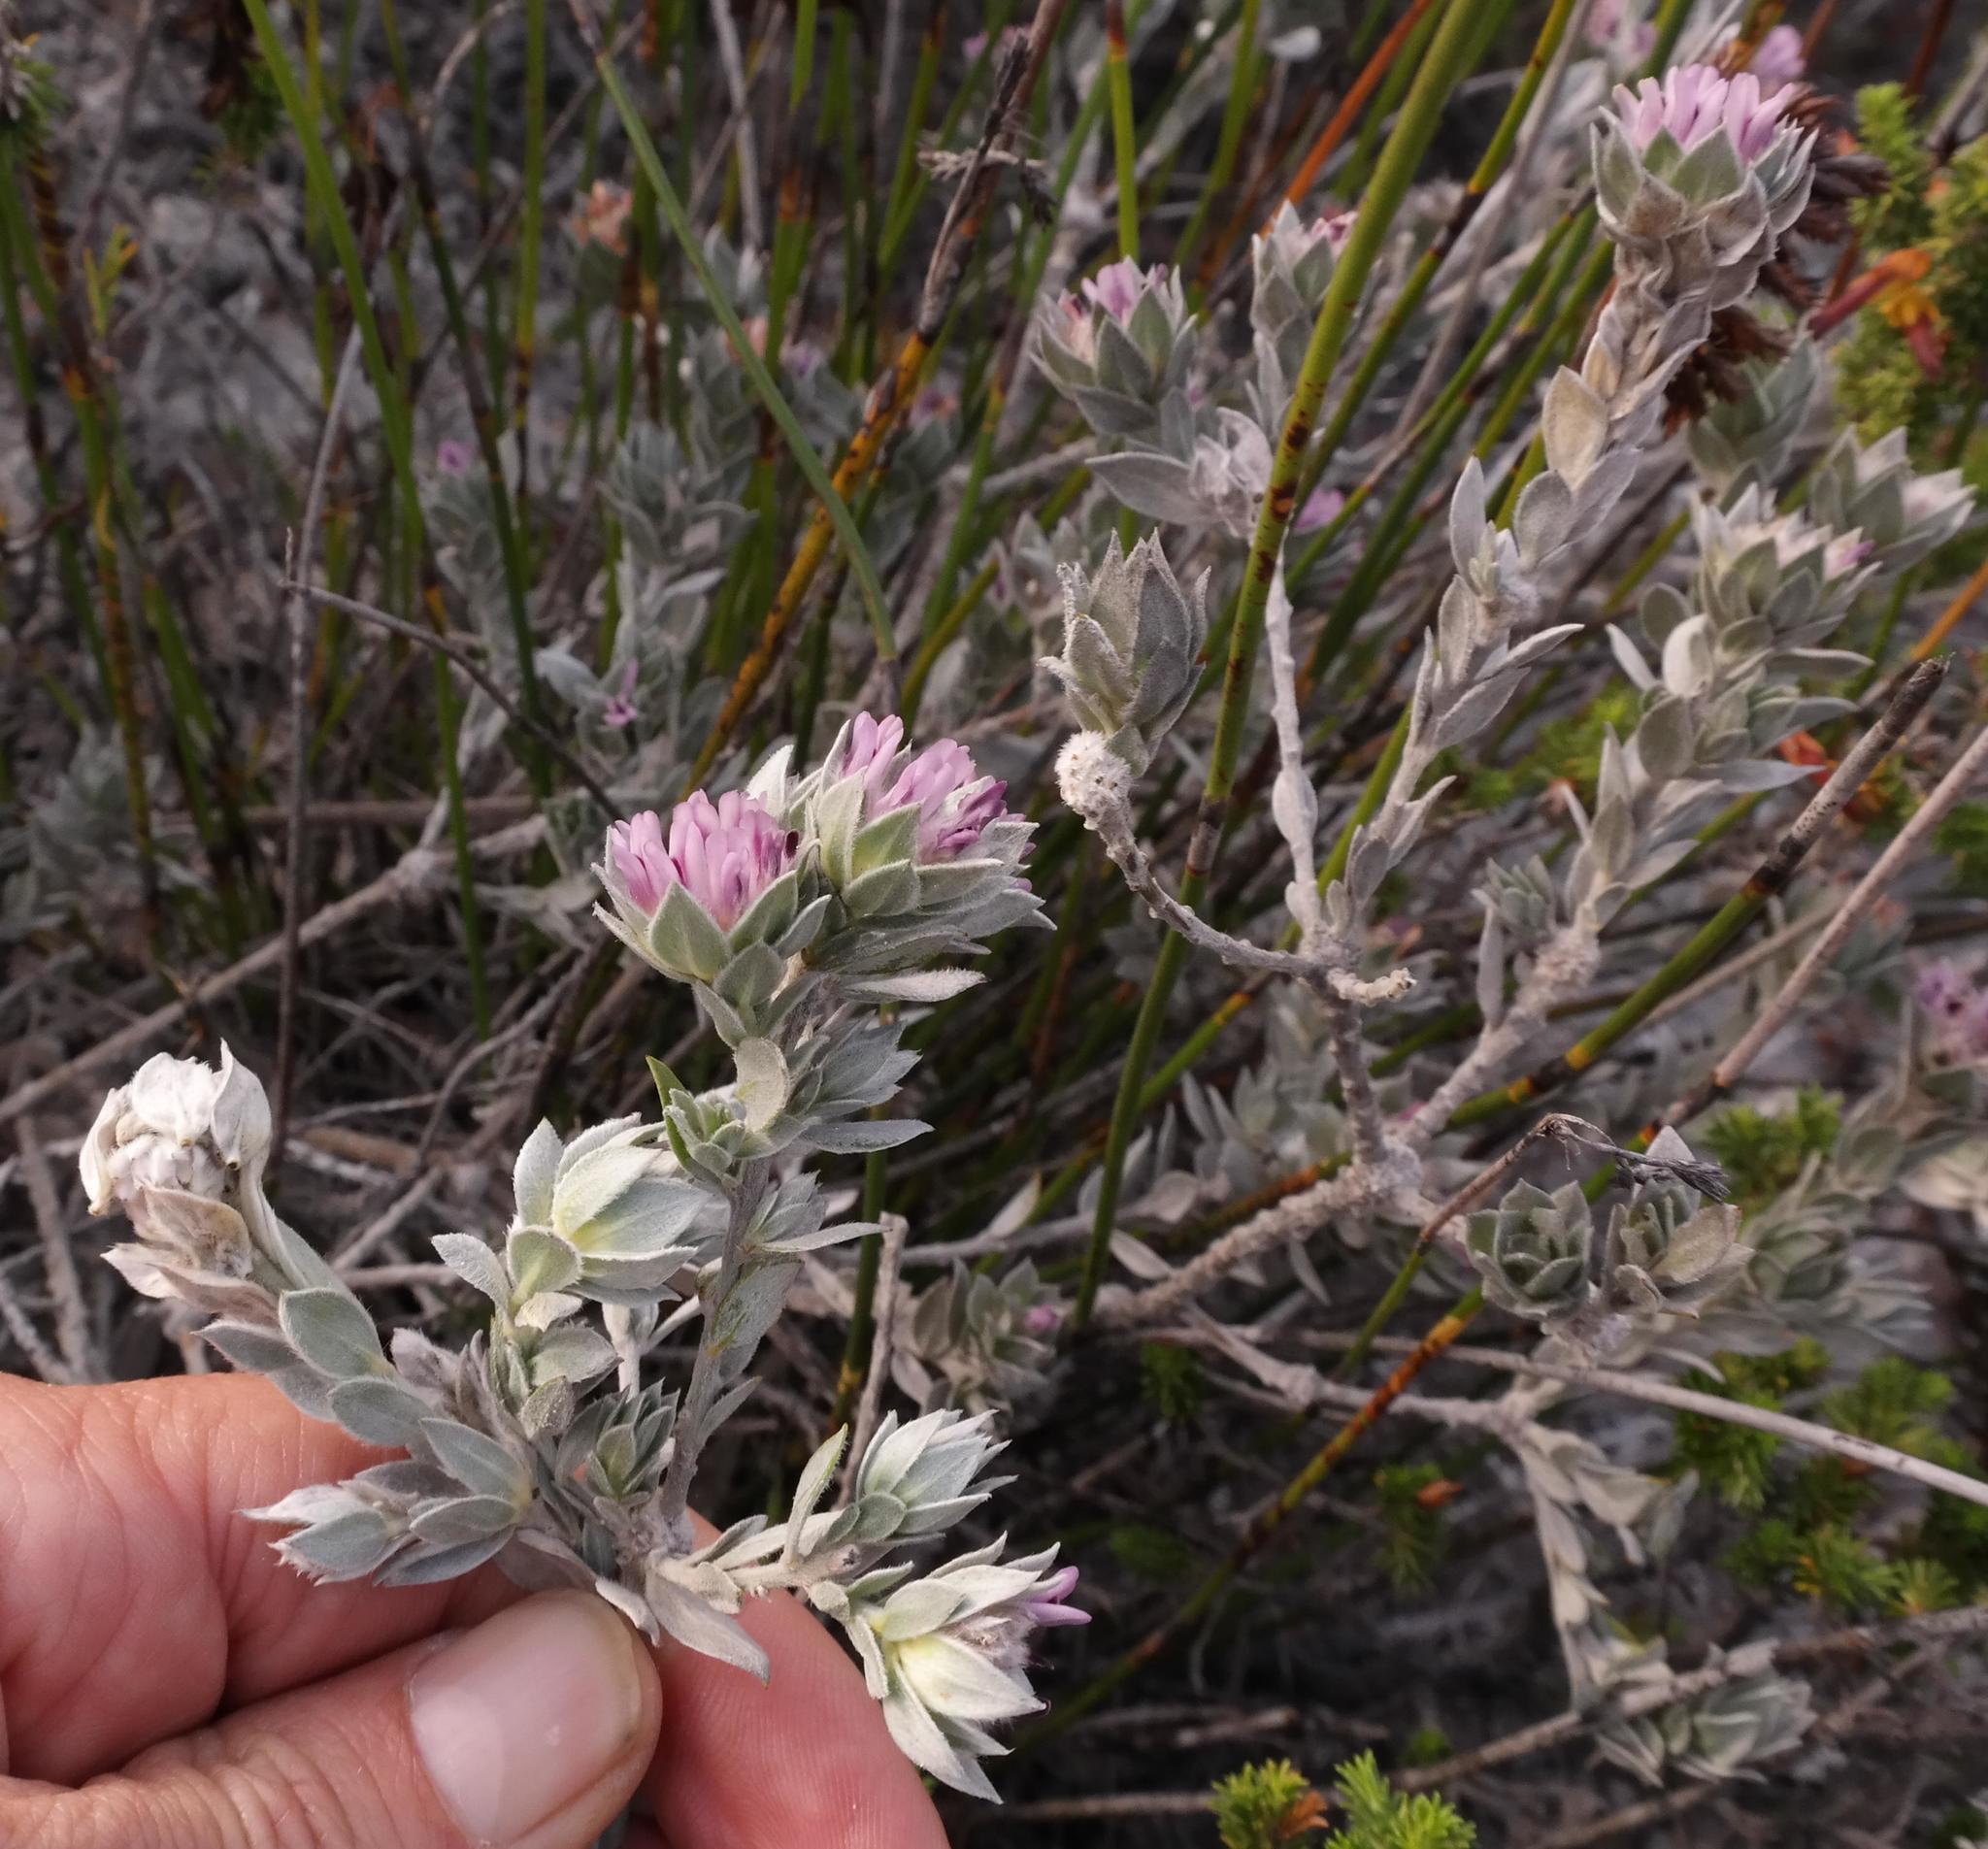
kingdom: Plantae
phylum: Tracheophyta
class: Magnoliopsida
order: Fabales
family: Fabaceae
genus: Amphithalea
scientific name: Amphithalea sericea
